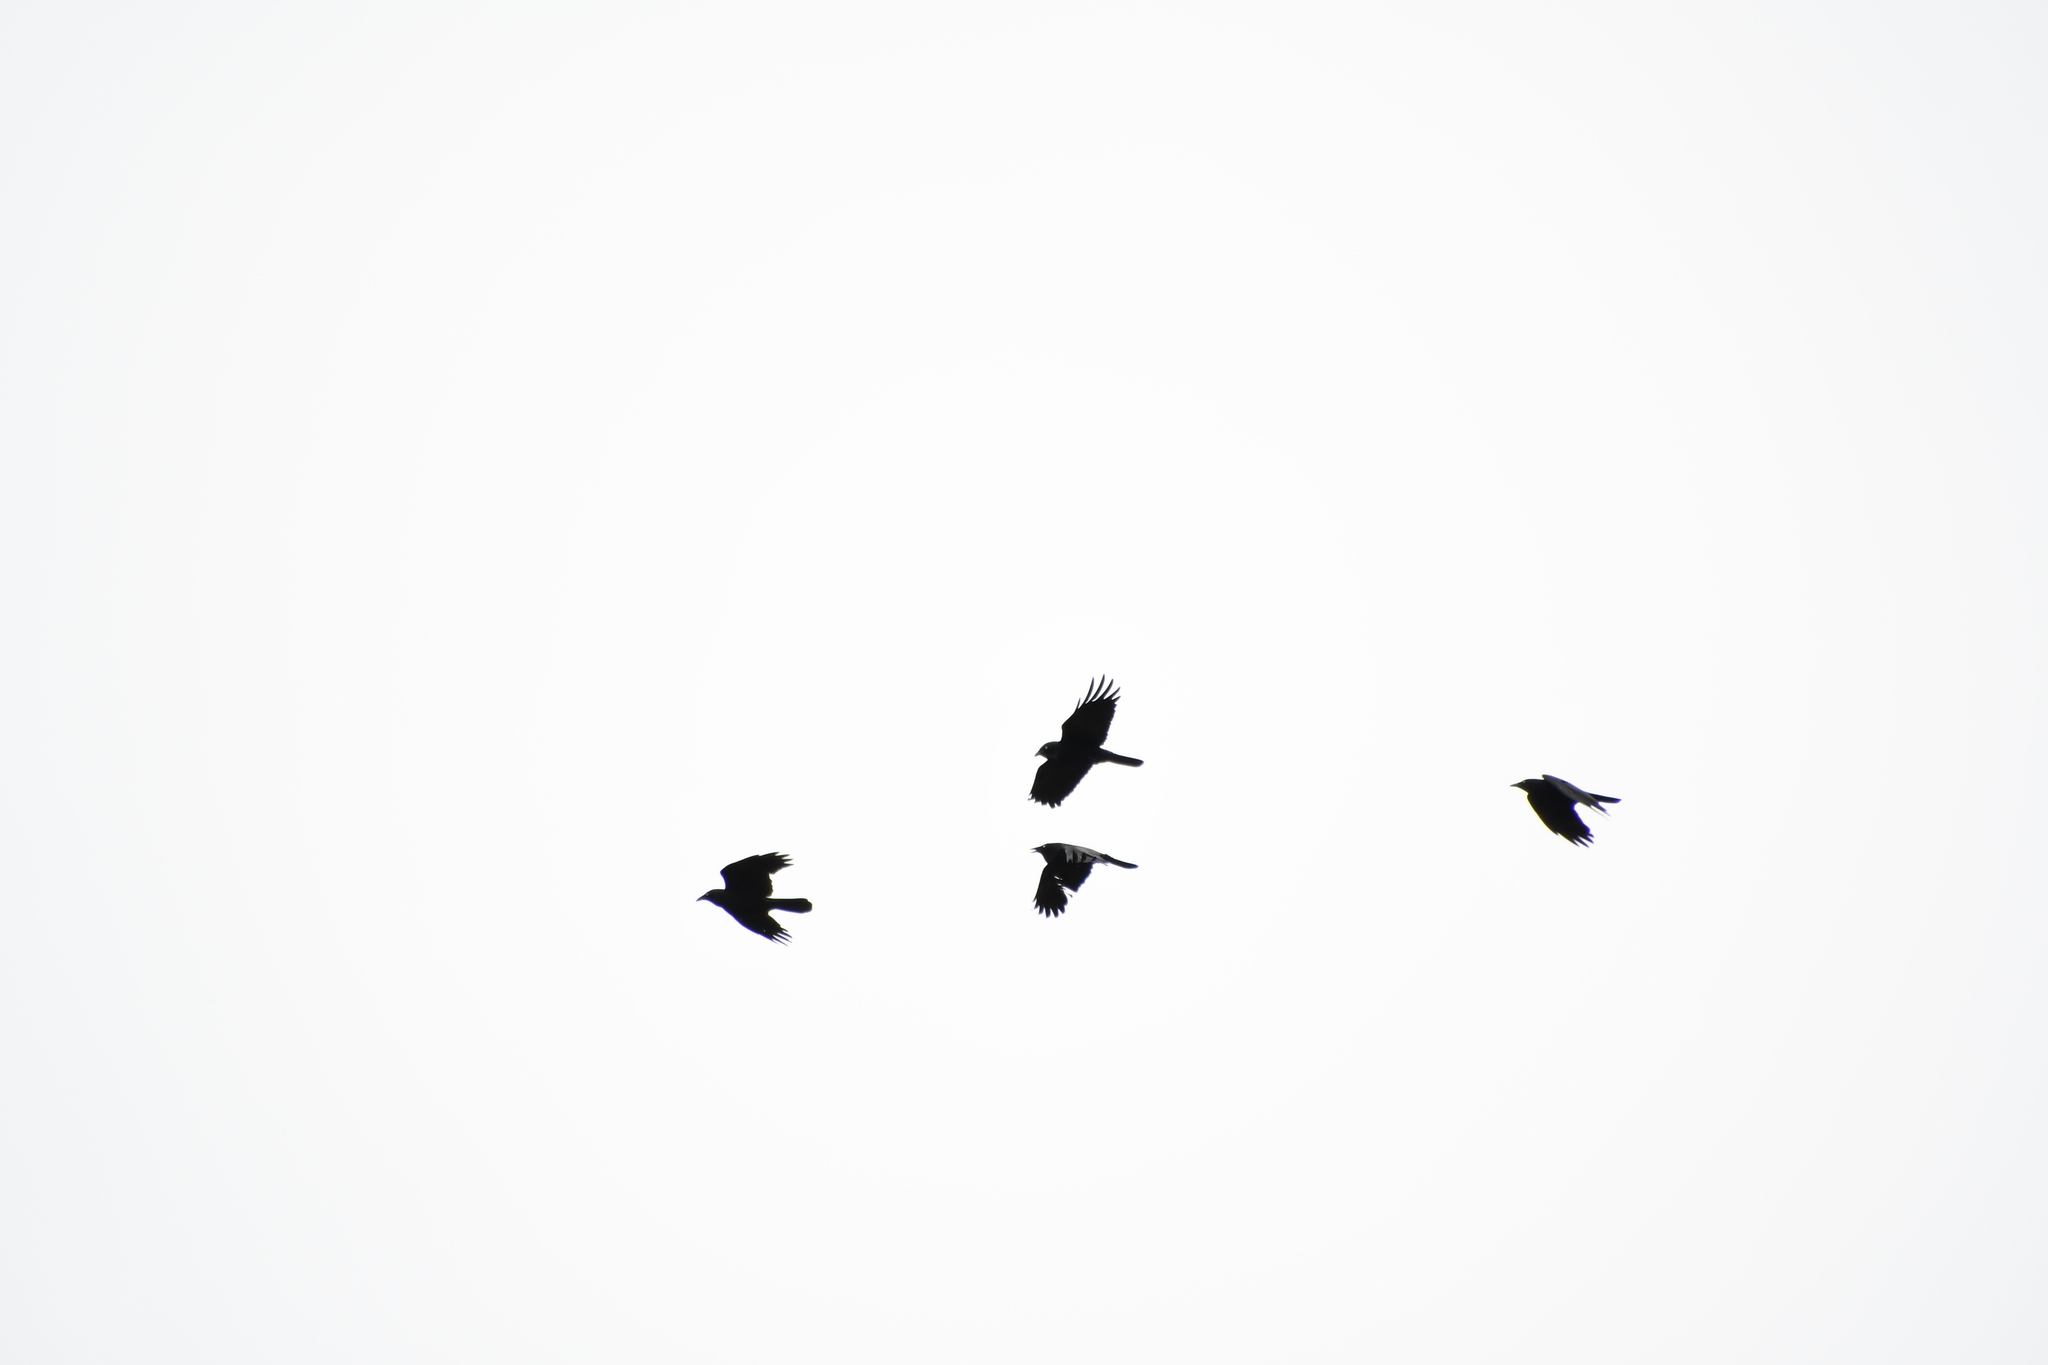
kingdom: Animalia
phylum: Chordata
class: Aves
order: Passeriformes
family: Corvidae
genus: Corvus
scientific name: Corvus coronoides
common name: Australian raven
